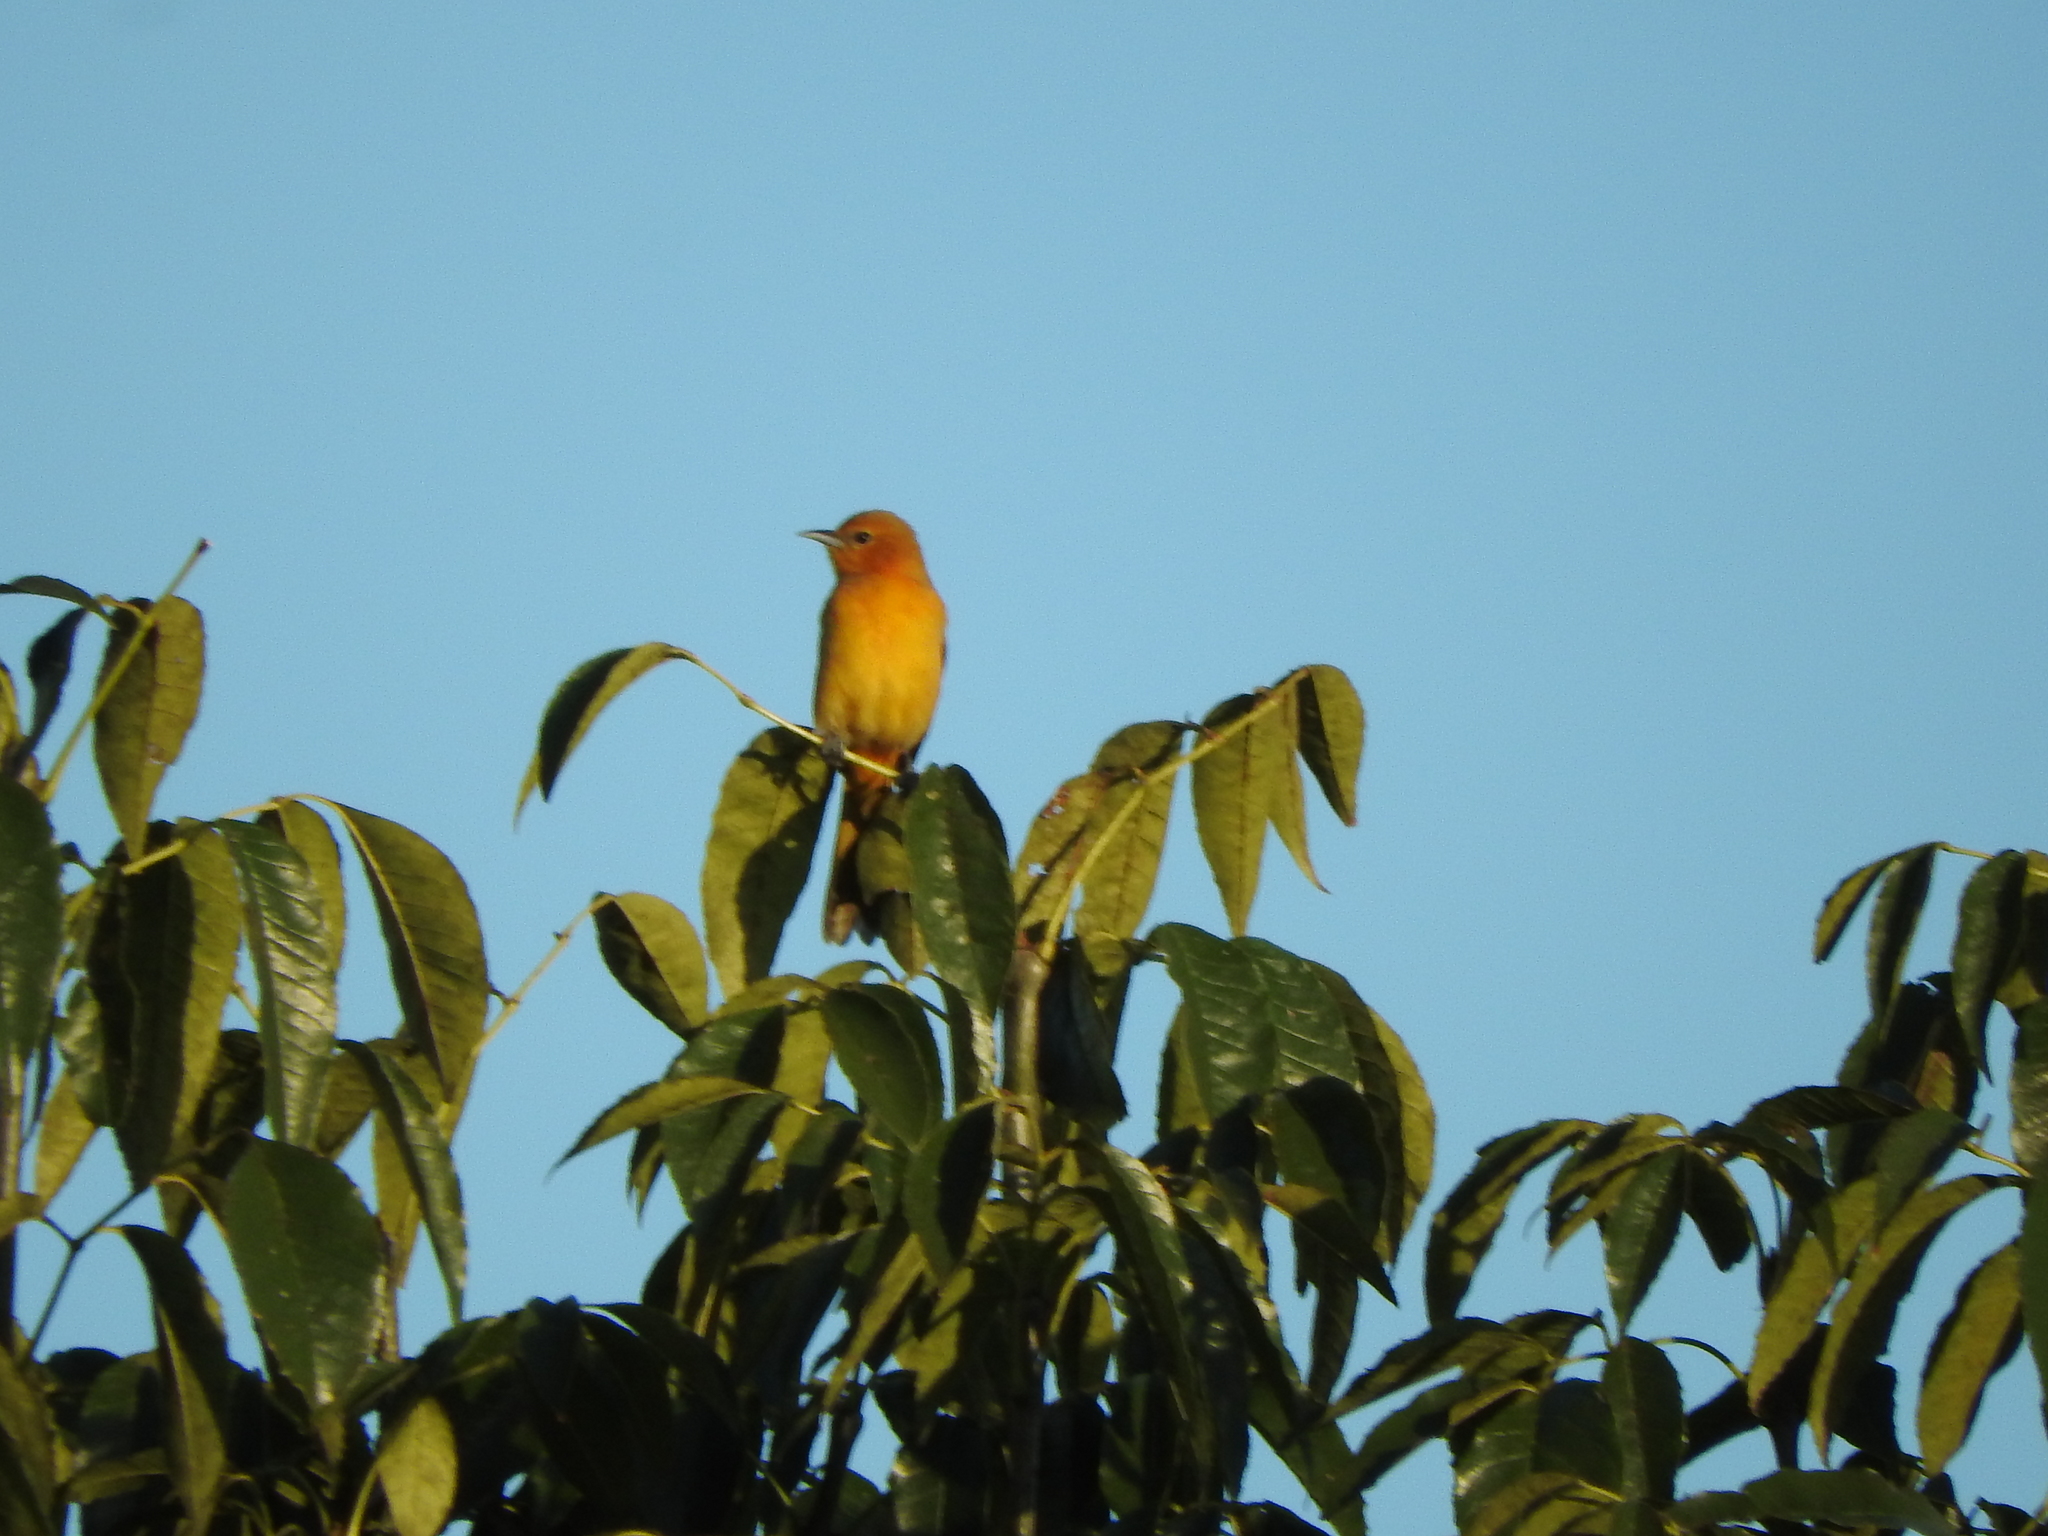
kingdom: Animalia
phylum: Chordata
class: Aves
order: Passeriformes
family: Icteridae
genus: Icterus
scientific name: Icterus
